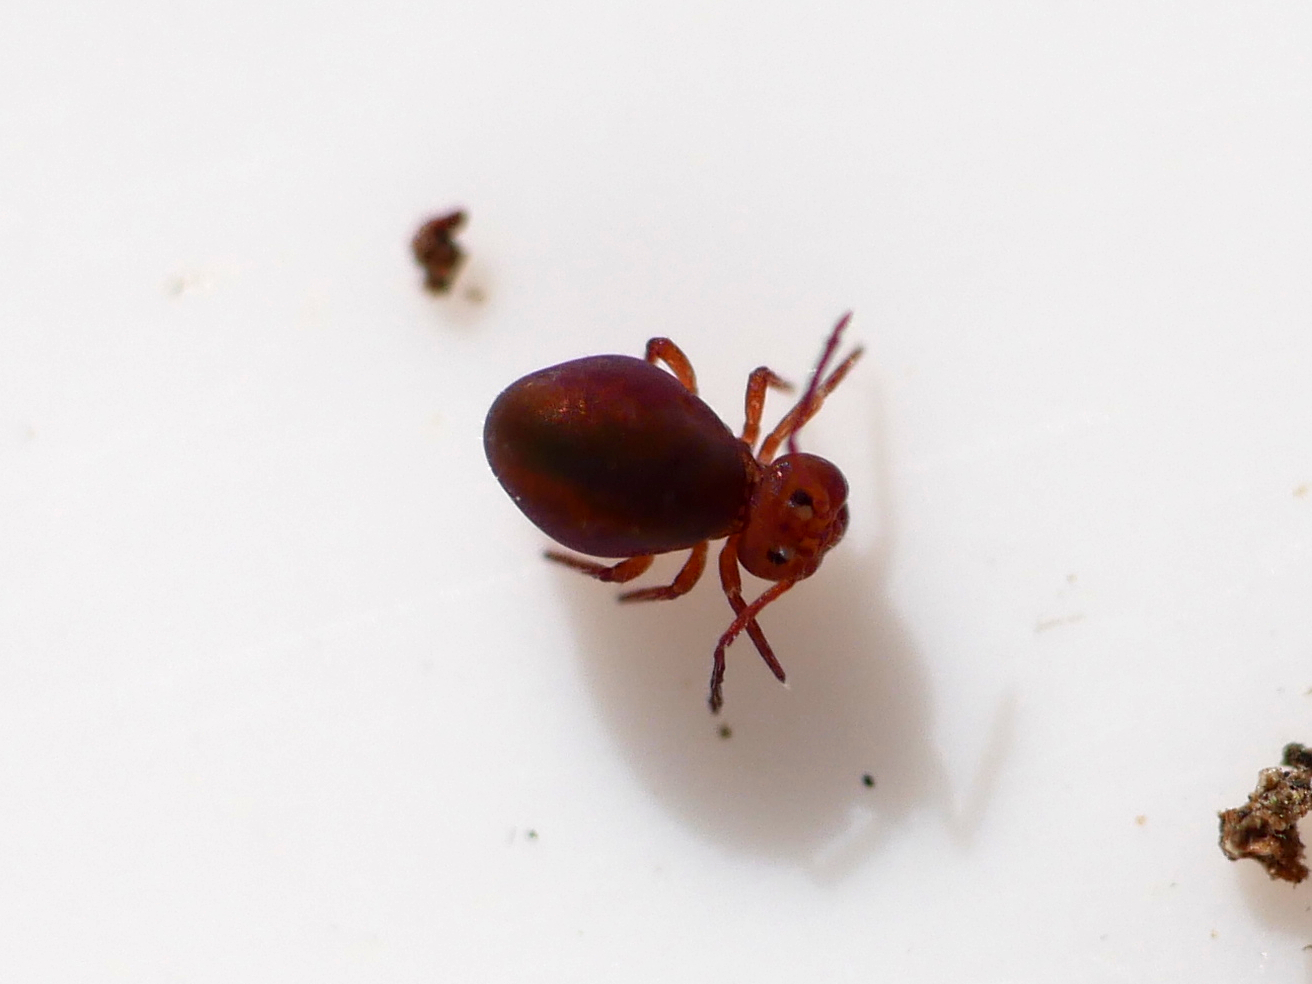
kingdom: Animalia
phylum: Arthropoda
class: Collembola
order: Symphypleona
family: Dicyrtomidae
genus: Dicyrtoma
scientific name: Dicyrtoma fusca
